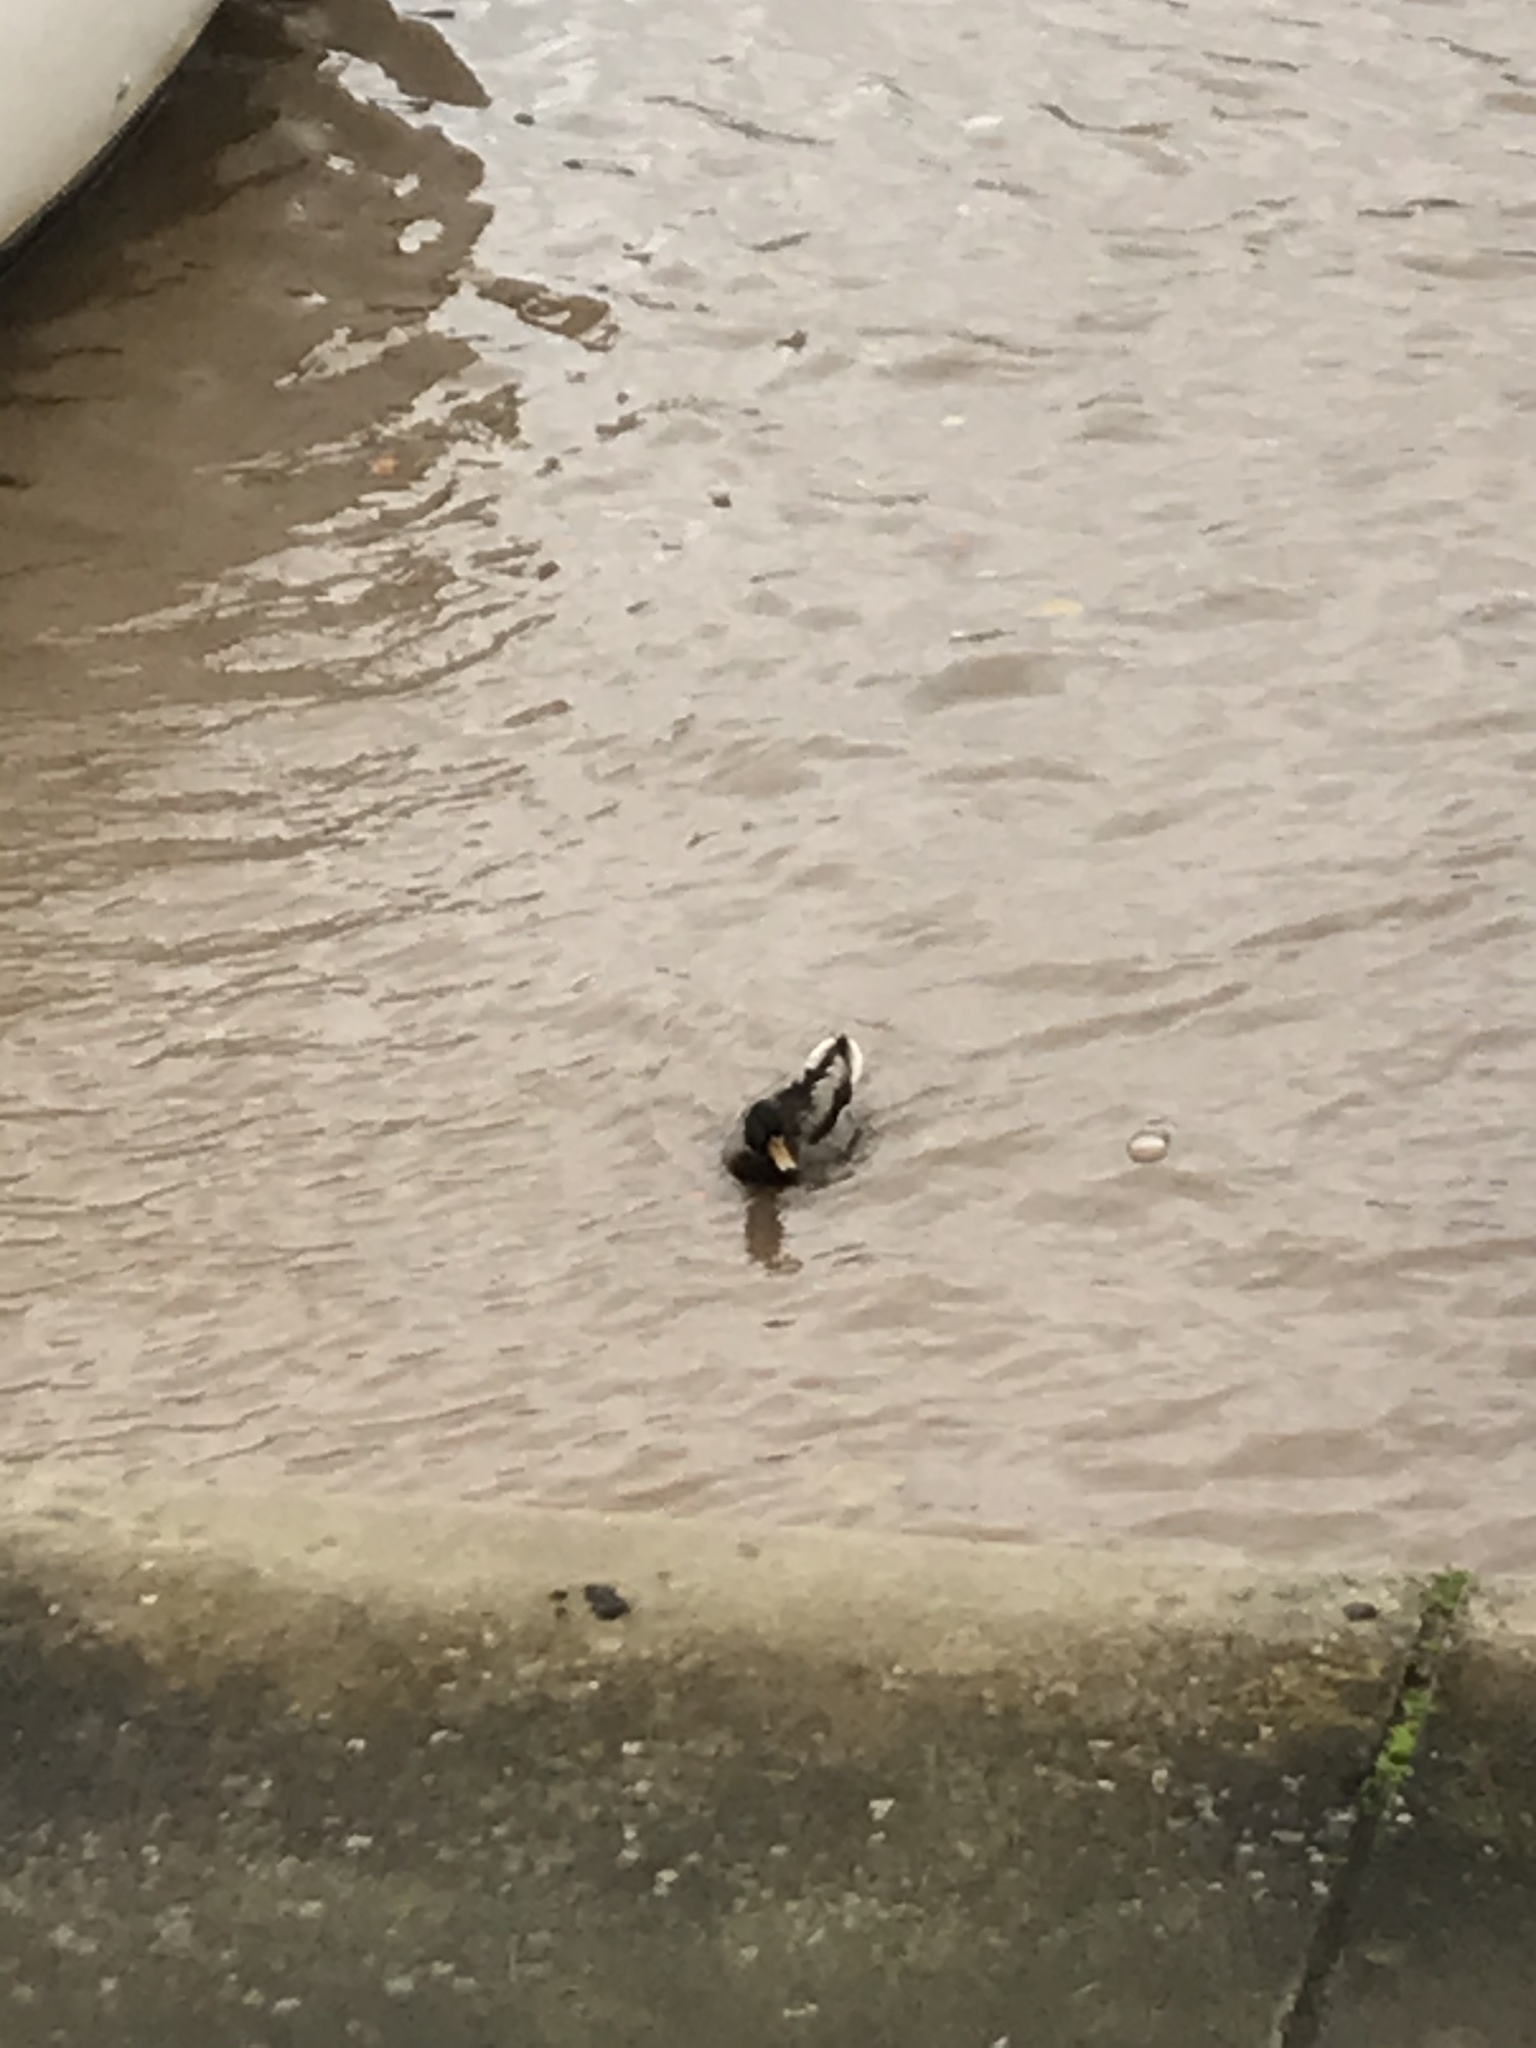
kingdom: Animalia
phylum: Chordata
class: Aves
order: Anseriformes
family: Anatidae
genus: Anas
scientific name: Anas platyrhynchos
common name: Mallard
